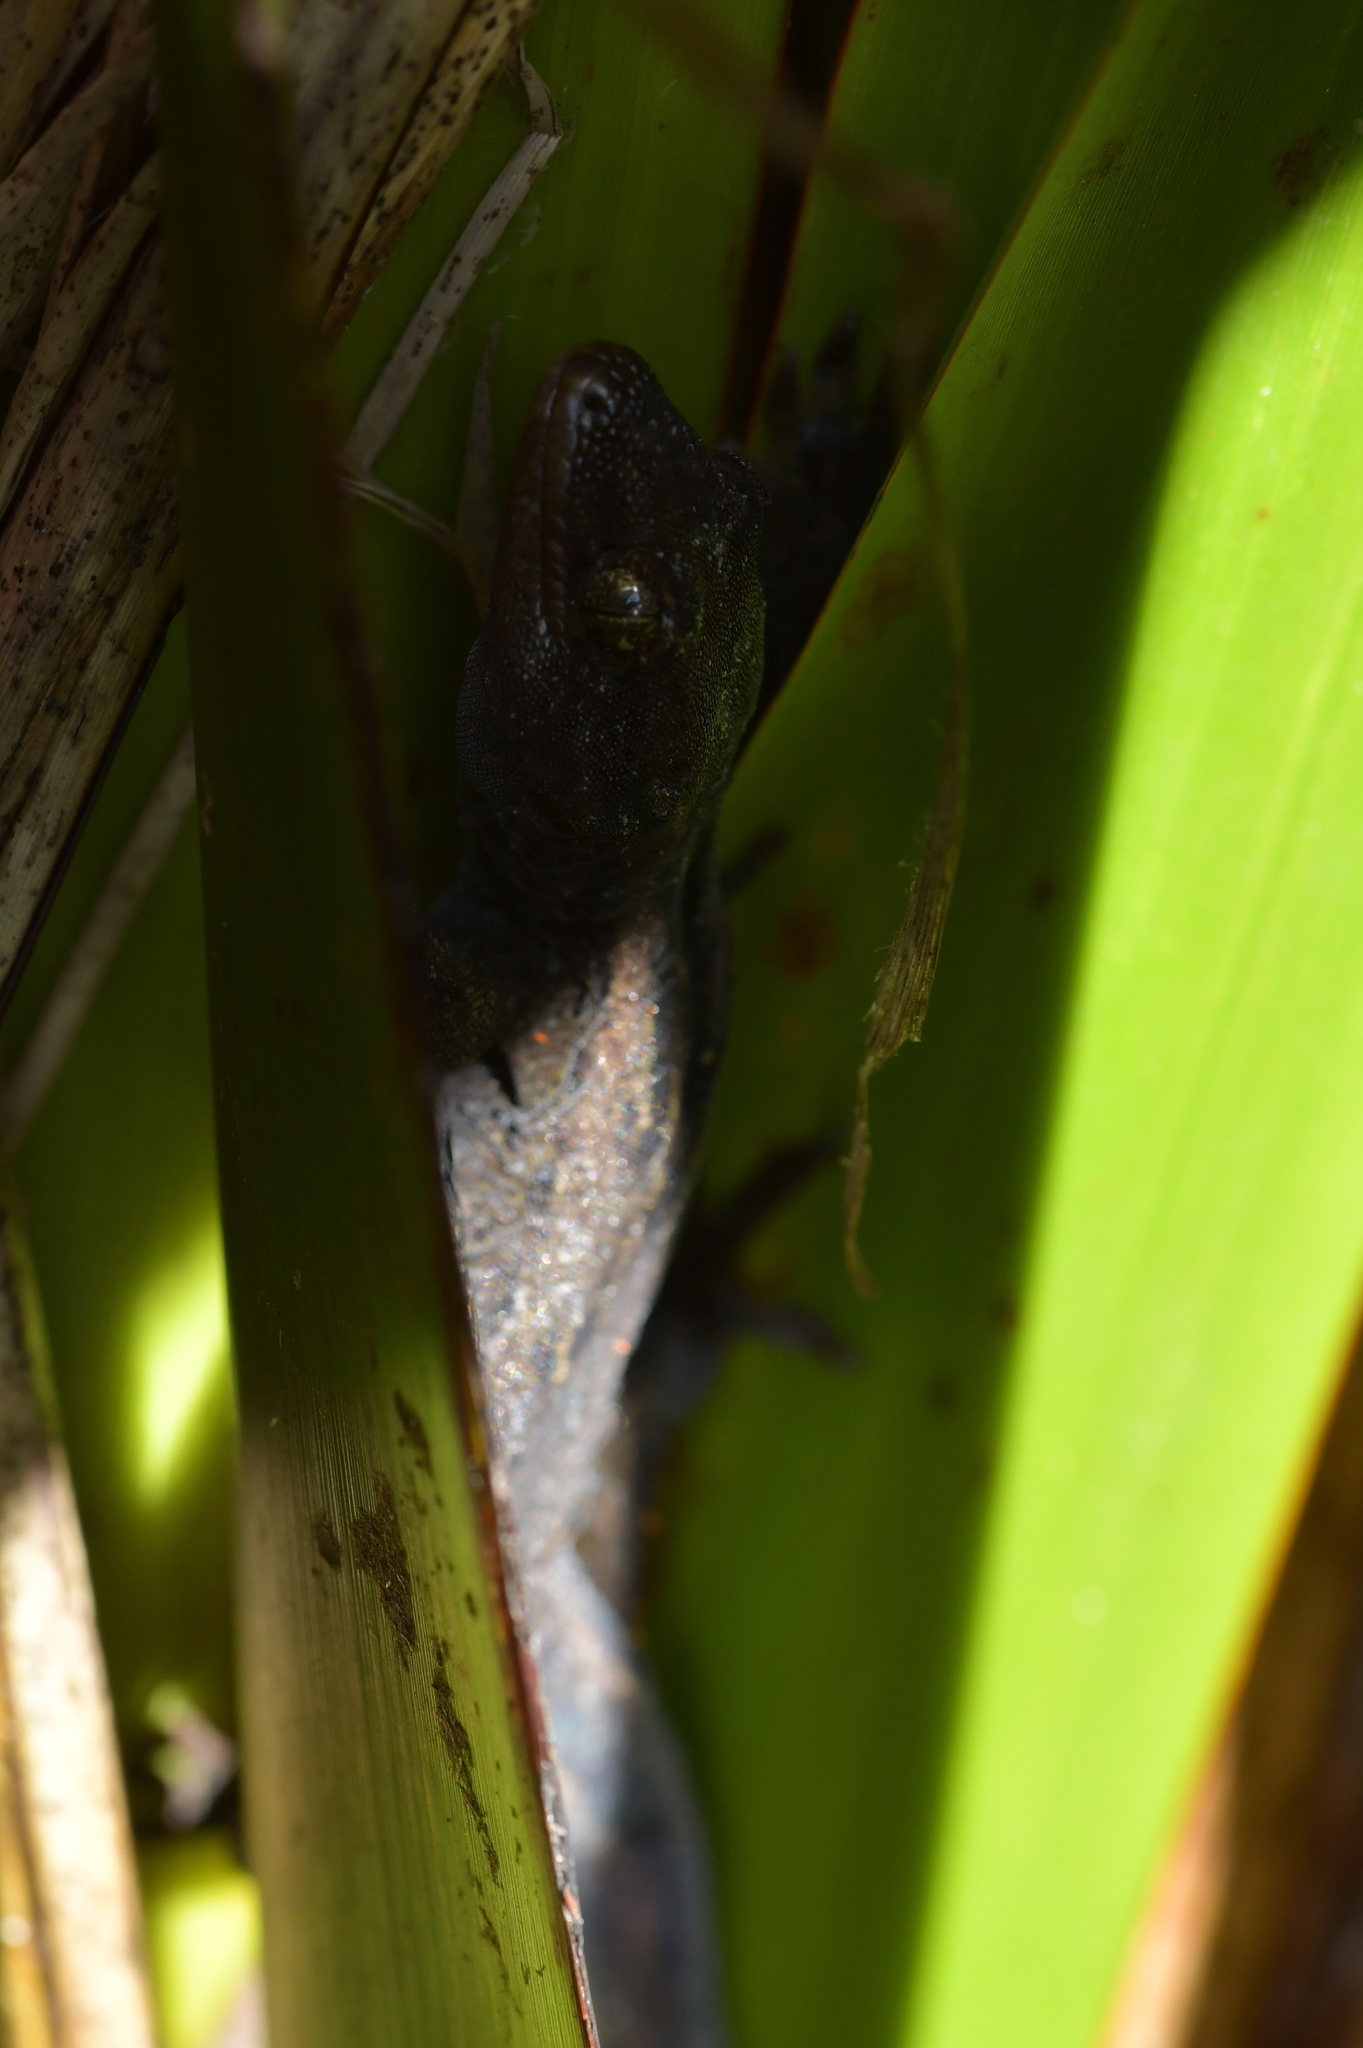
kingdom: Animalia
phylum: Chordata
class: Squamata
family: Diplodactylidae
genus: Woodworthia
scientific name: Woodworthia maculata
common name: Raukawa gecko
